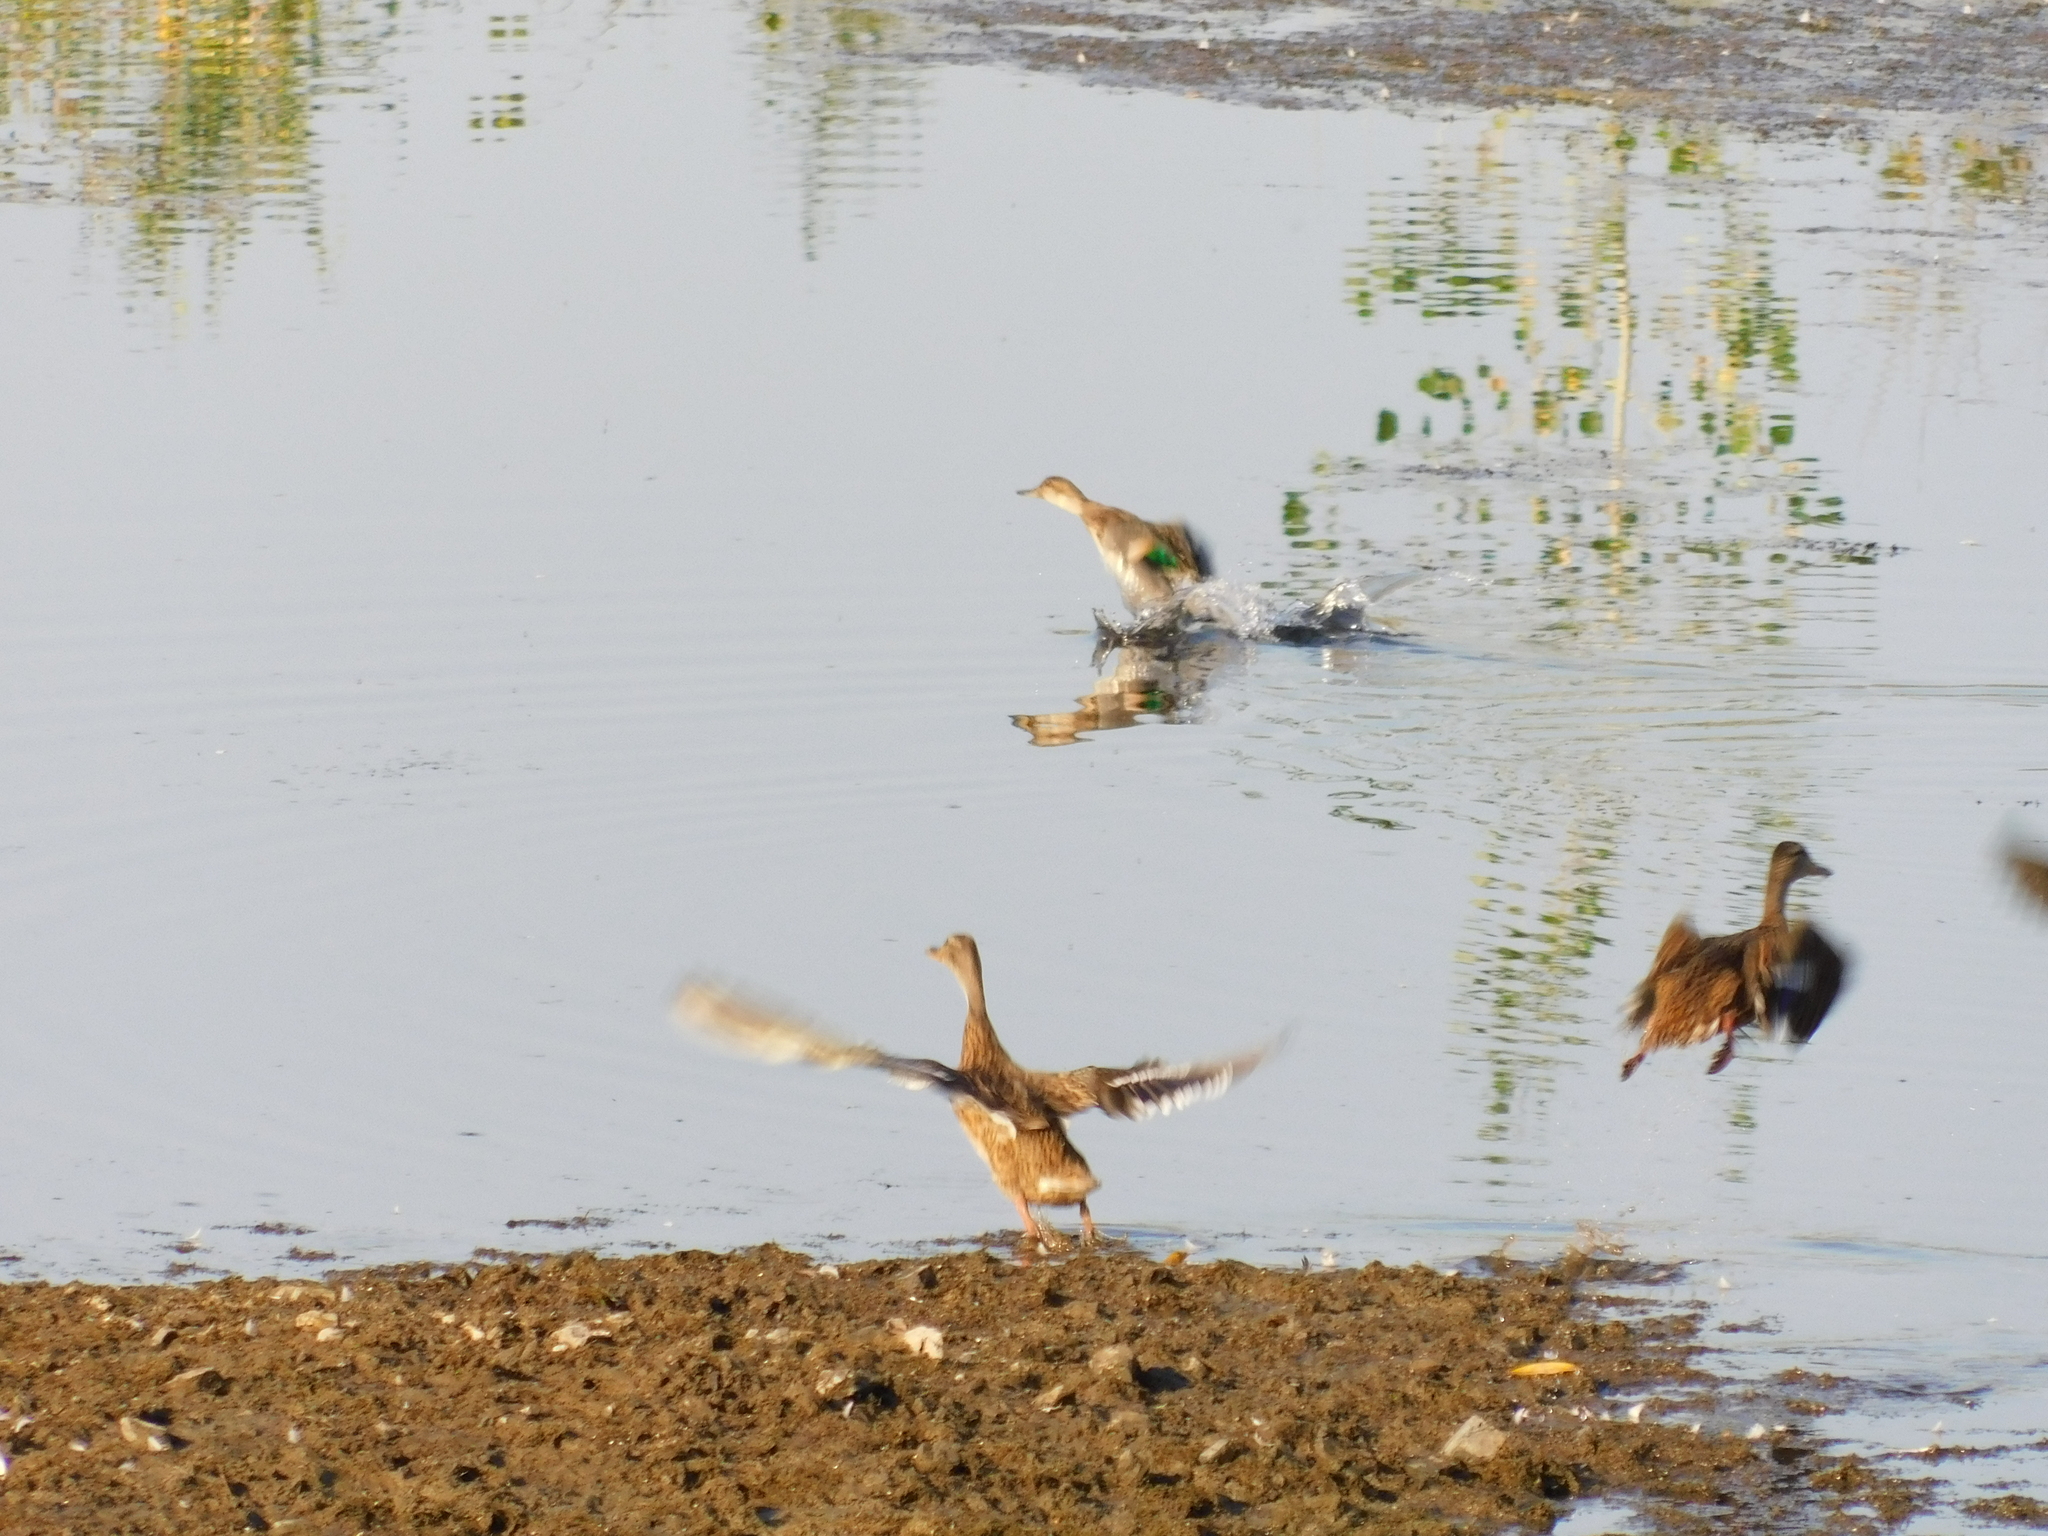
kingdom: Animalia
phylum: Chordata
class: Aves
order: Anseriformes
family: Anatidae
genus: Anas
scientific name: Anas crecca
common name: Eurasian teal
